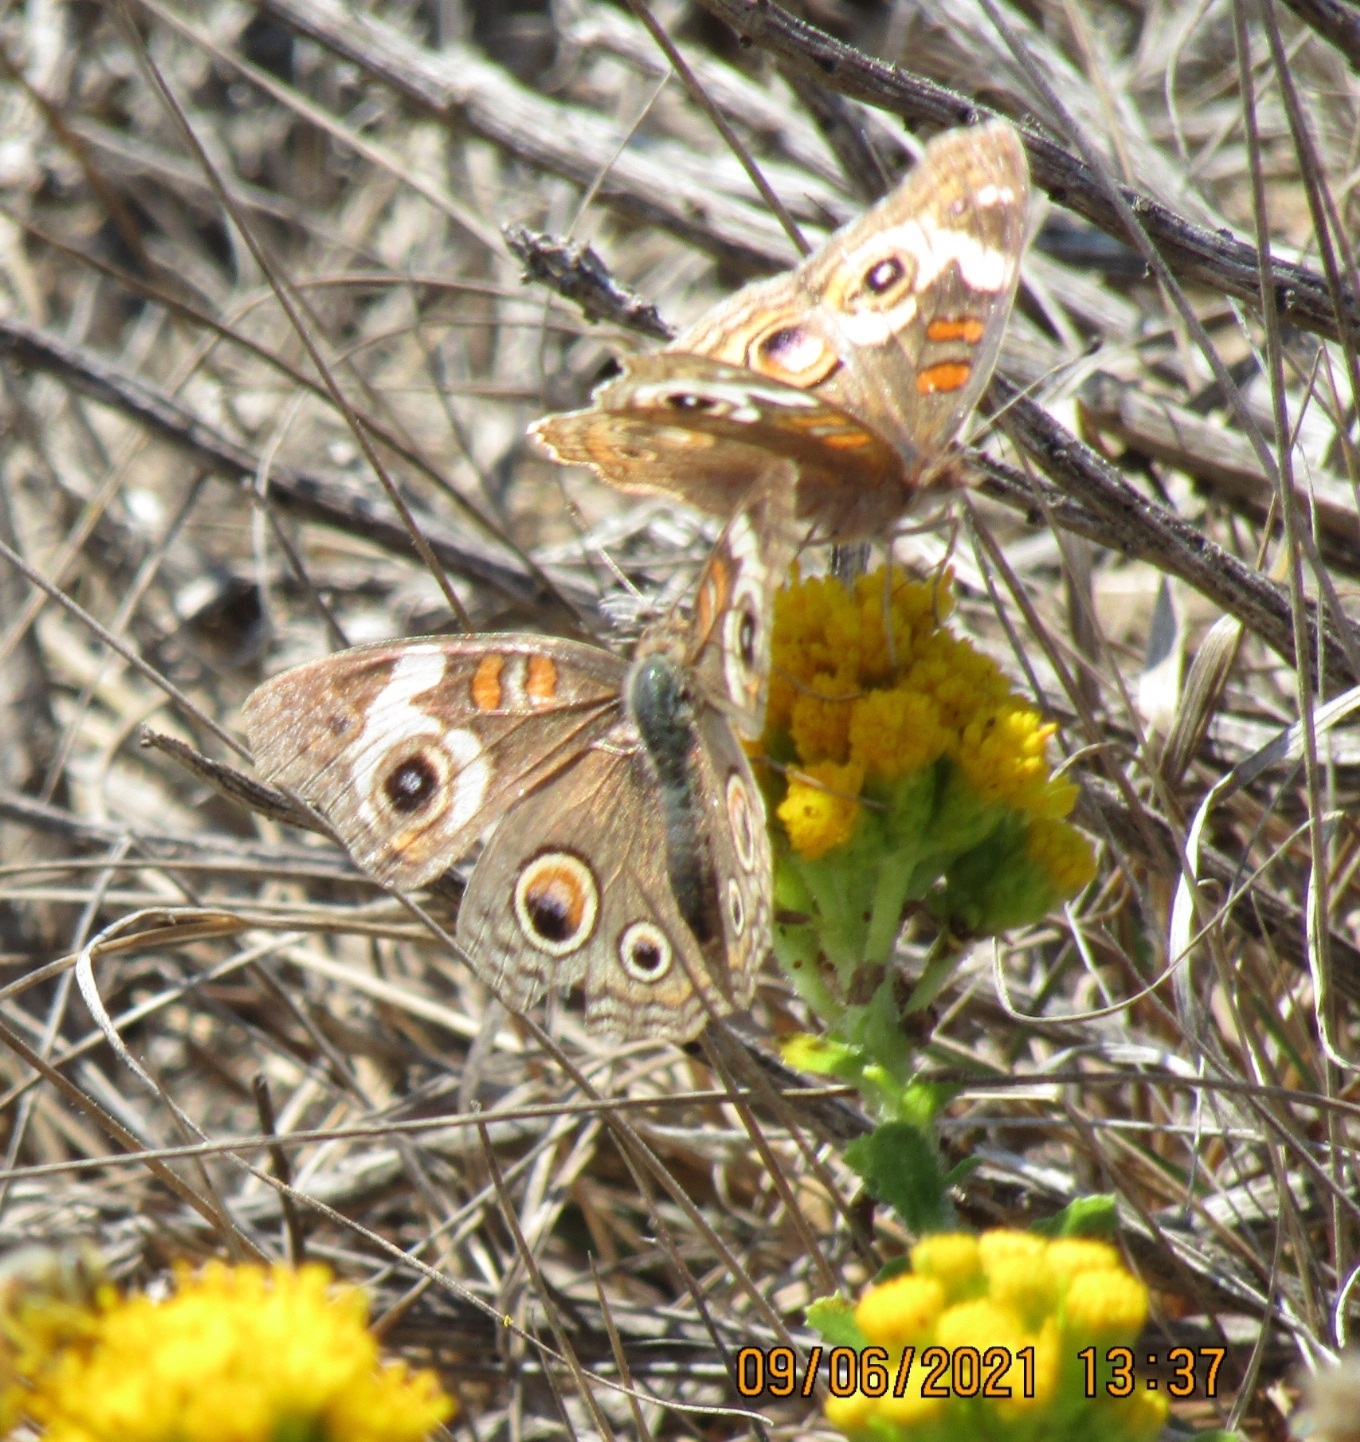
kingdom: Animalia
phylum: Arthropoda
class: Insecta
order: Lepidoptera
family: Nymphalidae
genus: Junonia
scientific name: Junonia grisea
